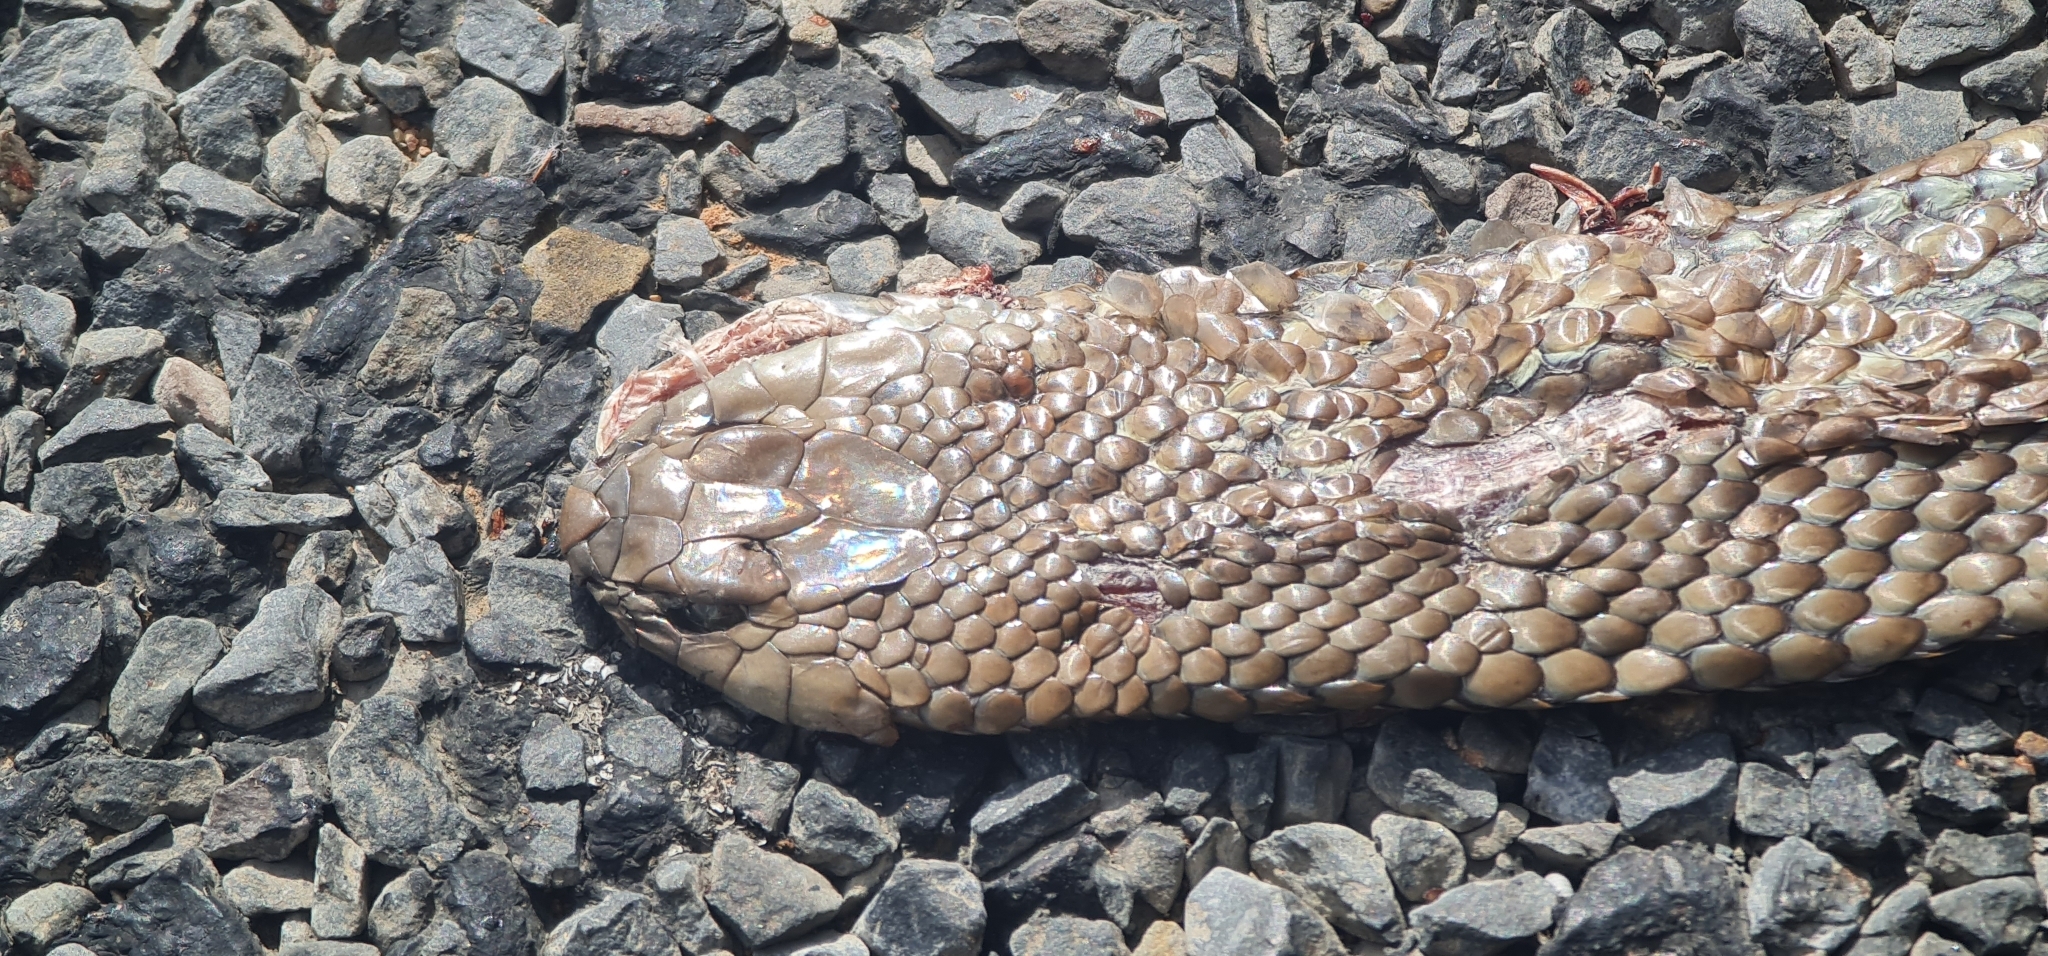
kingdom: Animalia
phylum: Chordata
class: Squamata
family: Elapidae
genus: Pseudonaja
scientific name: Pseudonaja textilis
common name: Eastern brown snake
